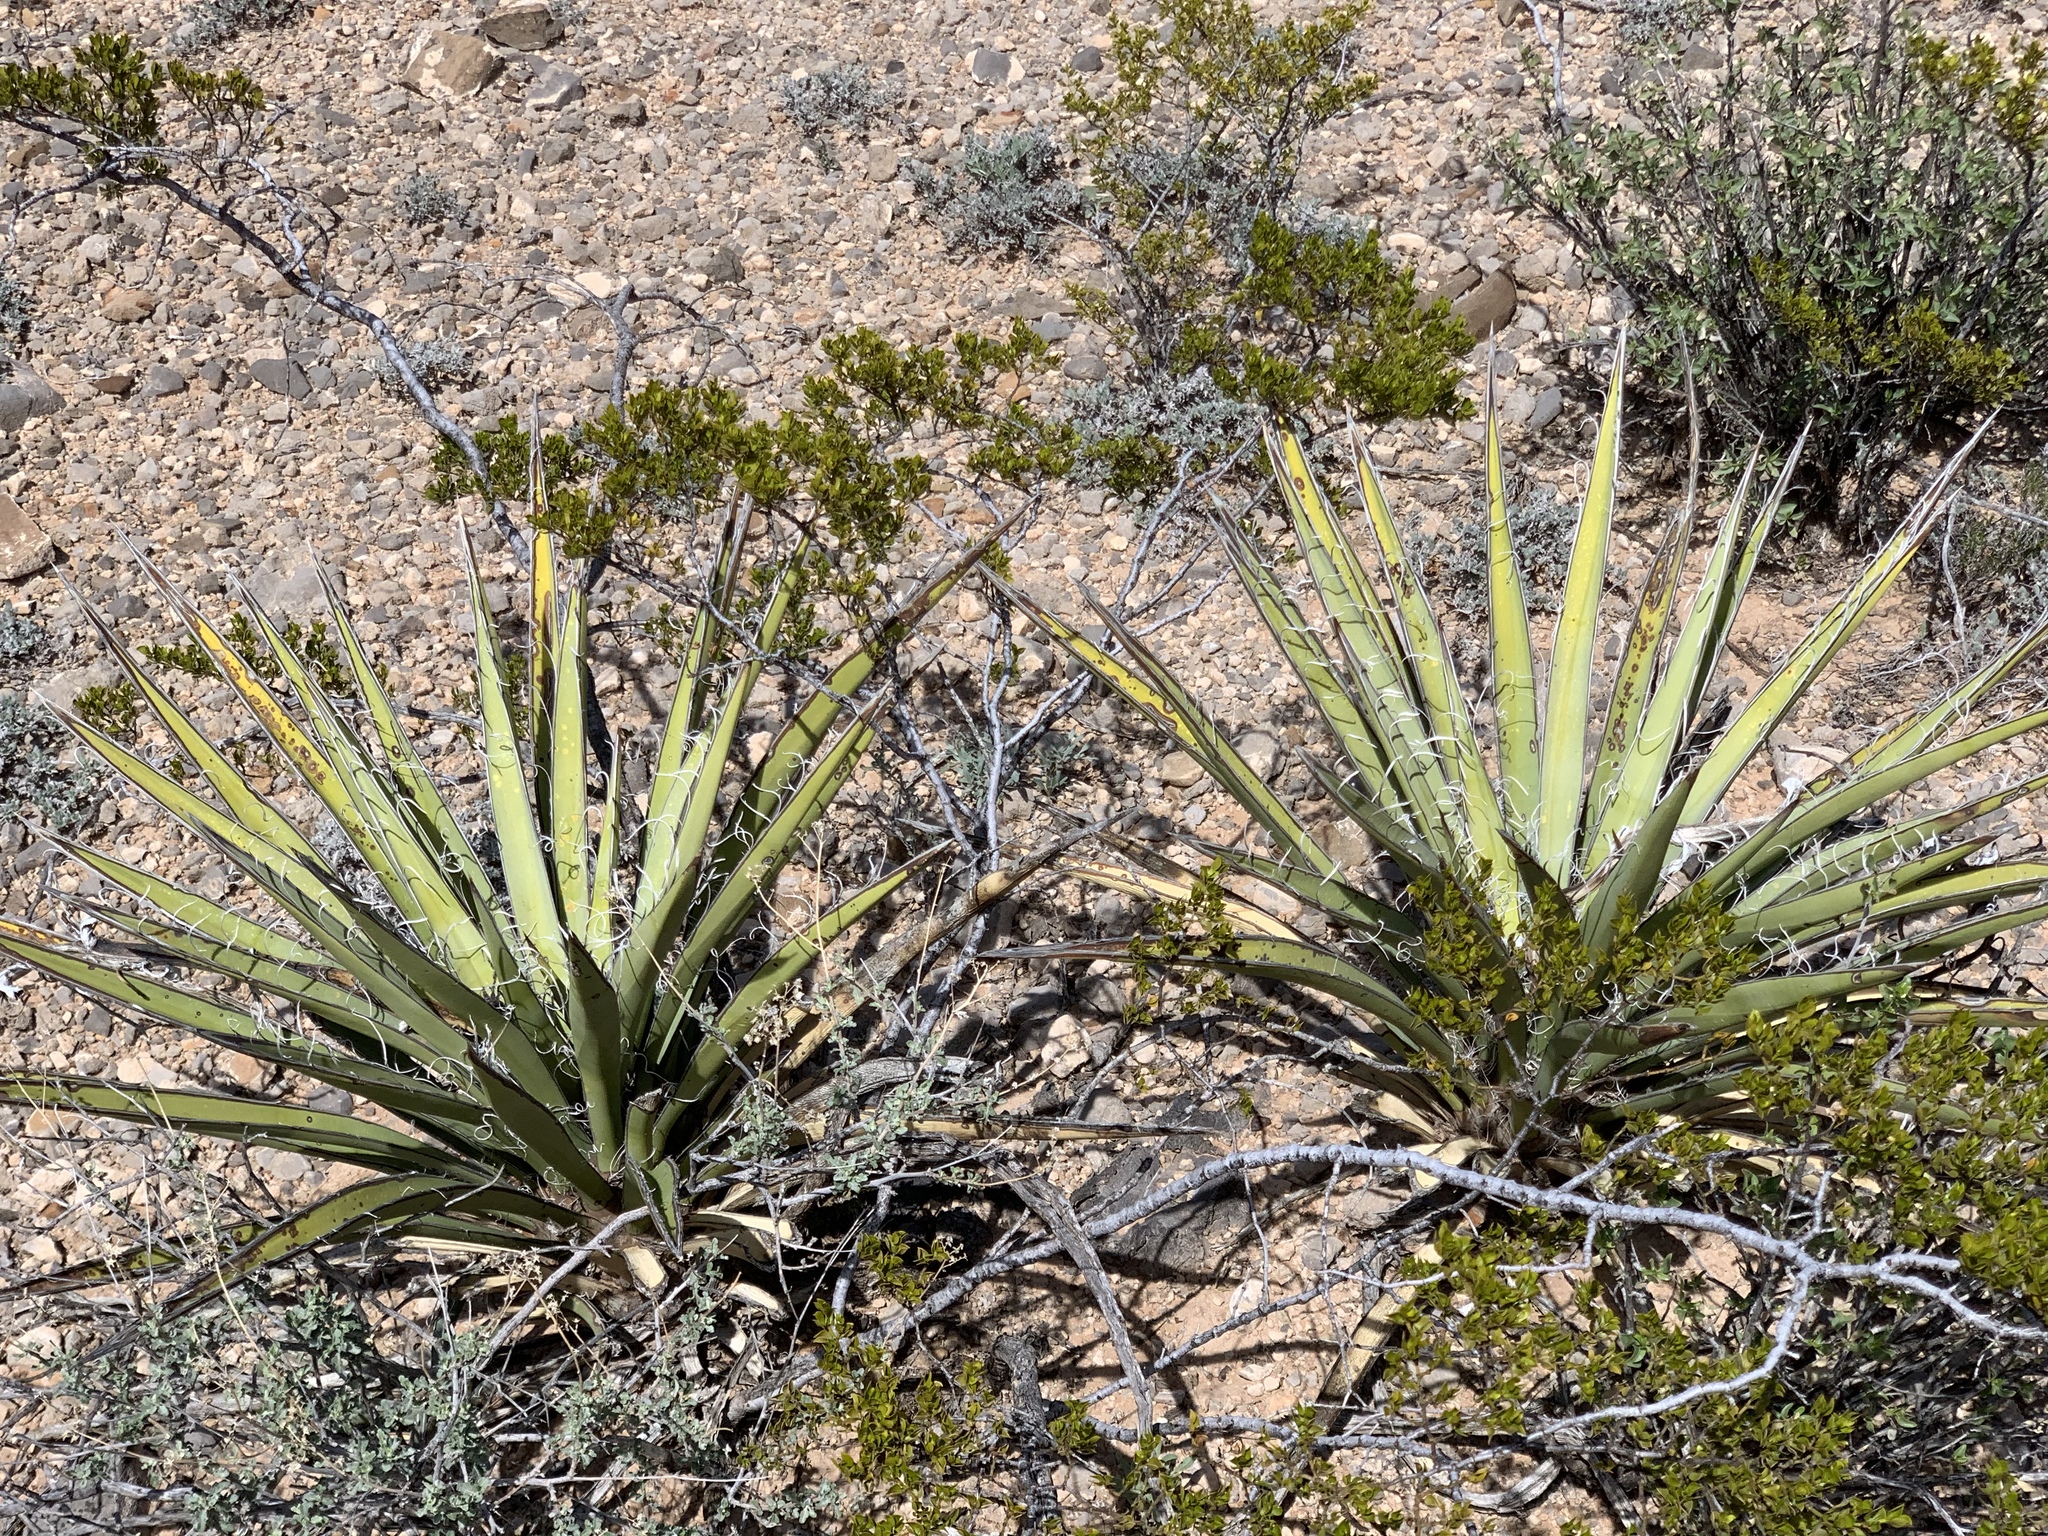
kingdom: Plantae
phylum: Tracheophyta
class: Liliopsida
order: Asparagales
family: Asparagaceae
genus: Yucca
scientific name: Yucca baccata
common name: Banana yucca
